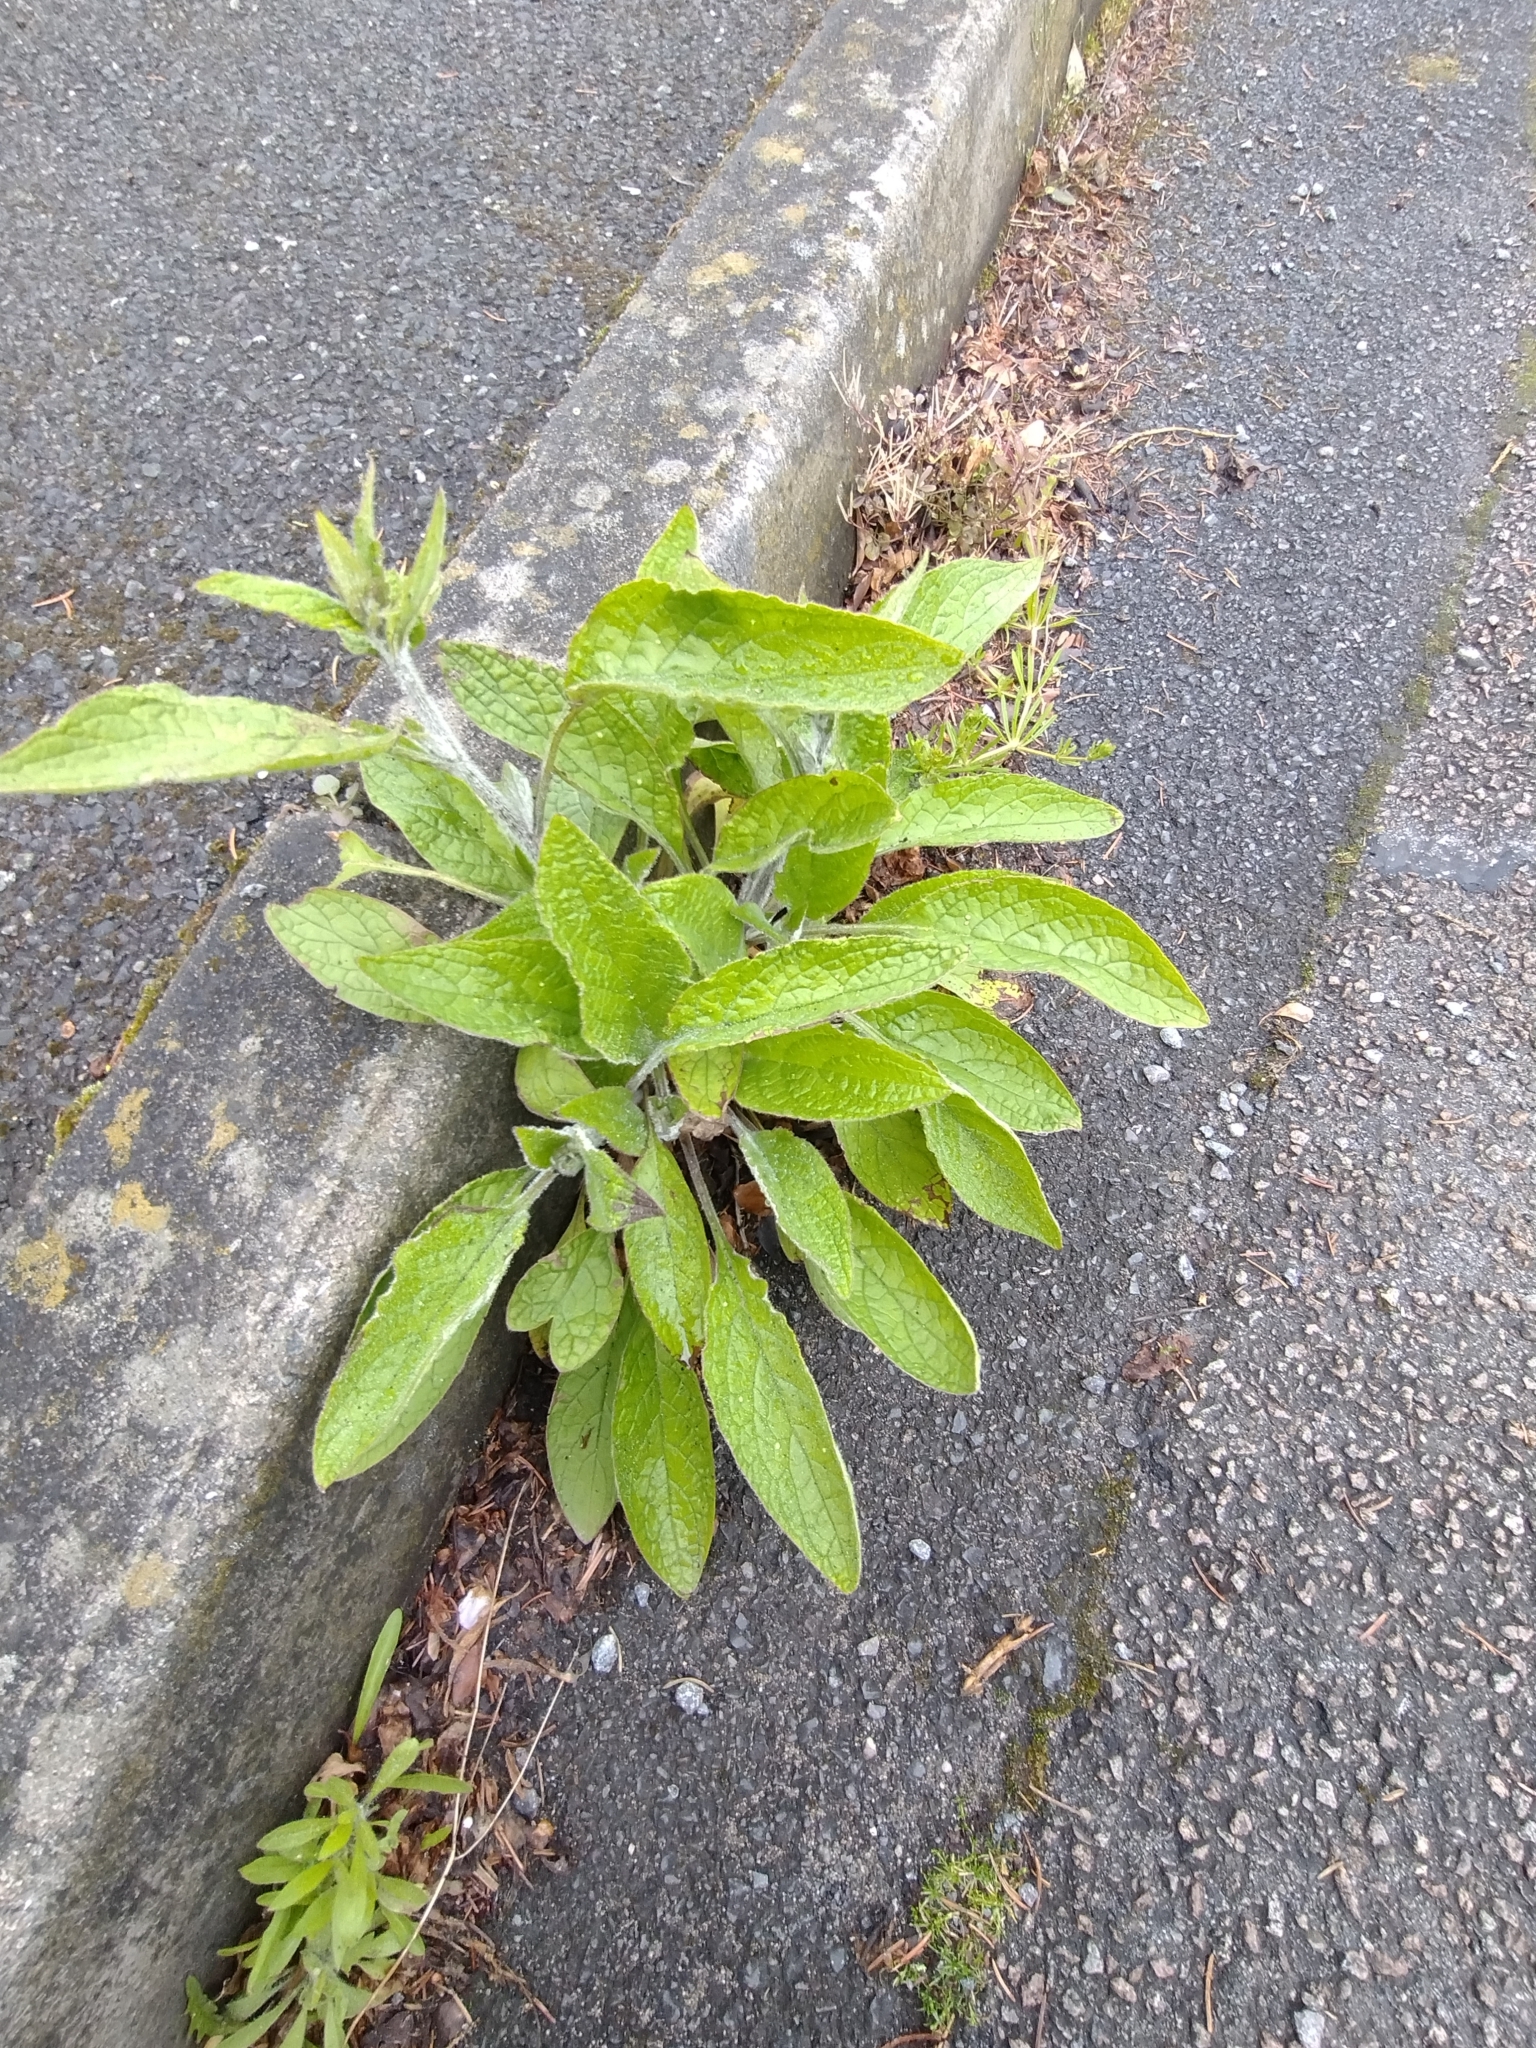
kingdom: Plantae
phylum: Tracheophyta
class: Magnoliopsida
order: Boraginales
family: Boraginaceae
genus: Pentaglottis
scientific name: Pentaglottis sempervirens
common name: Green alkanet
